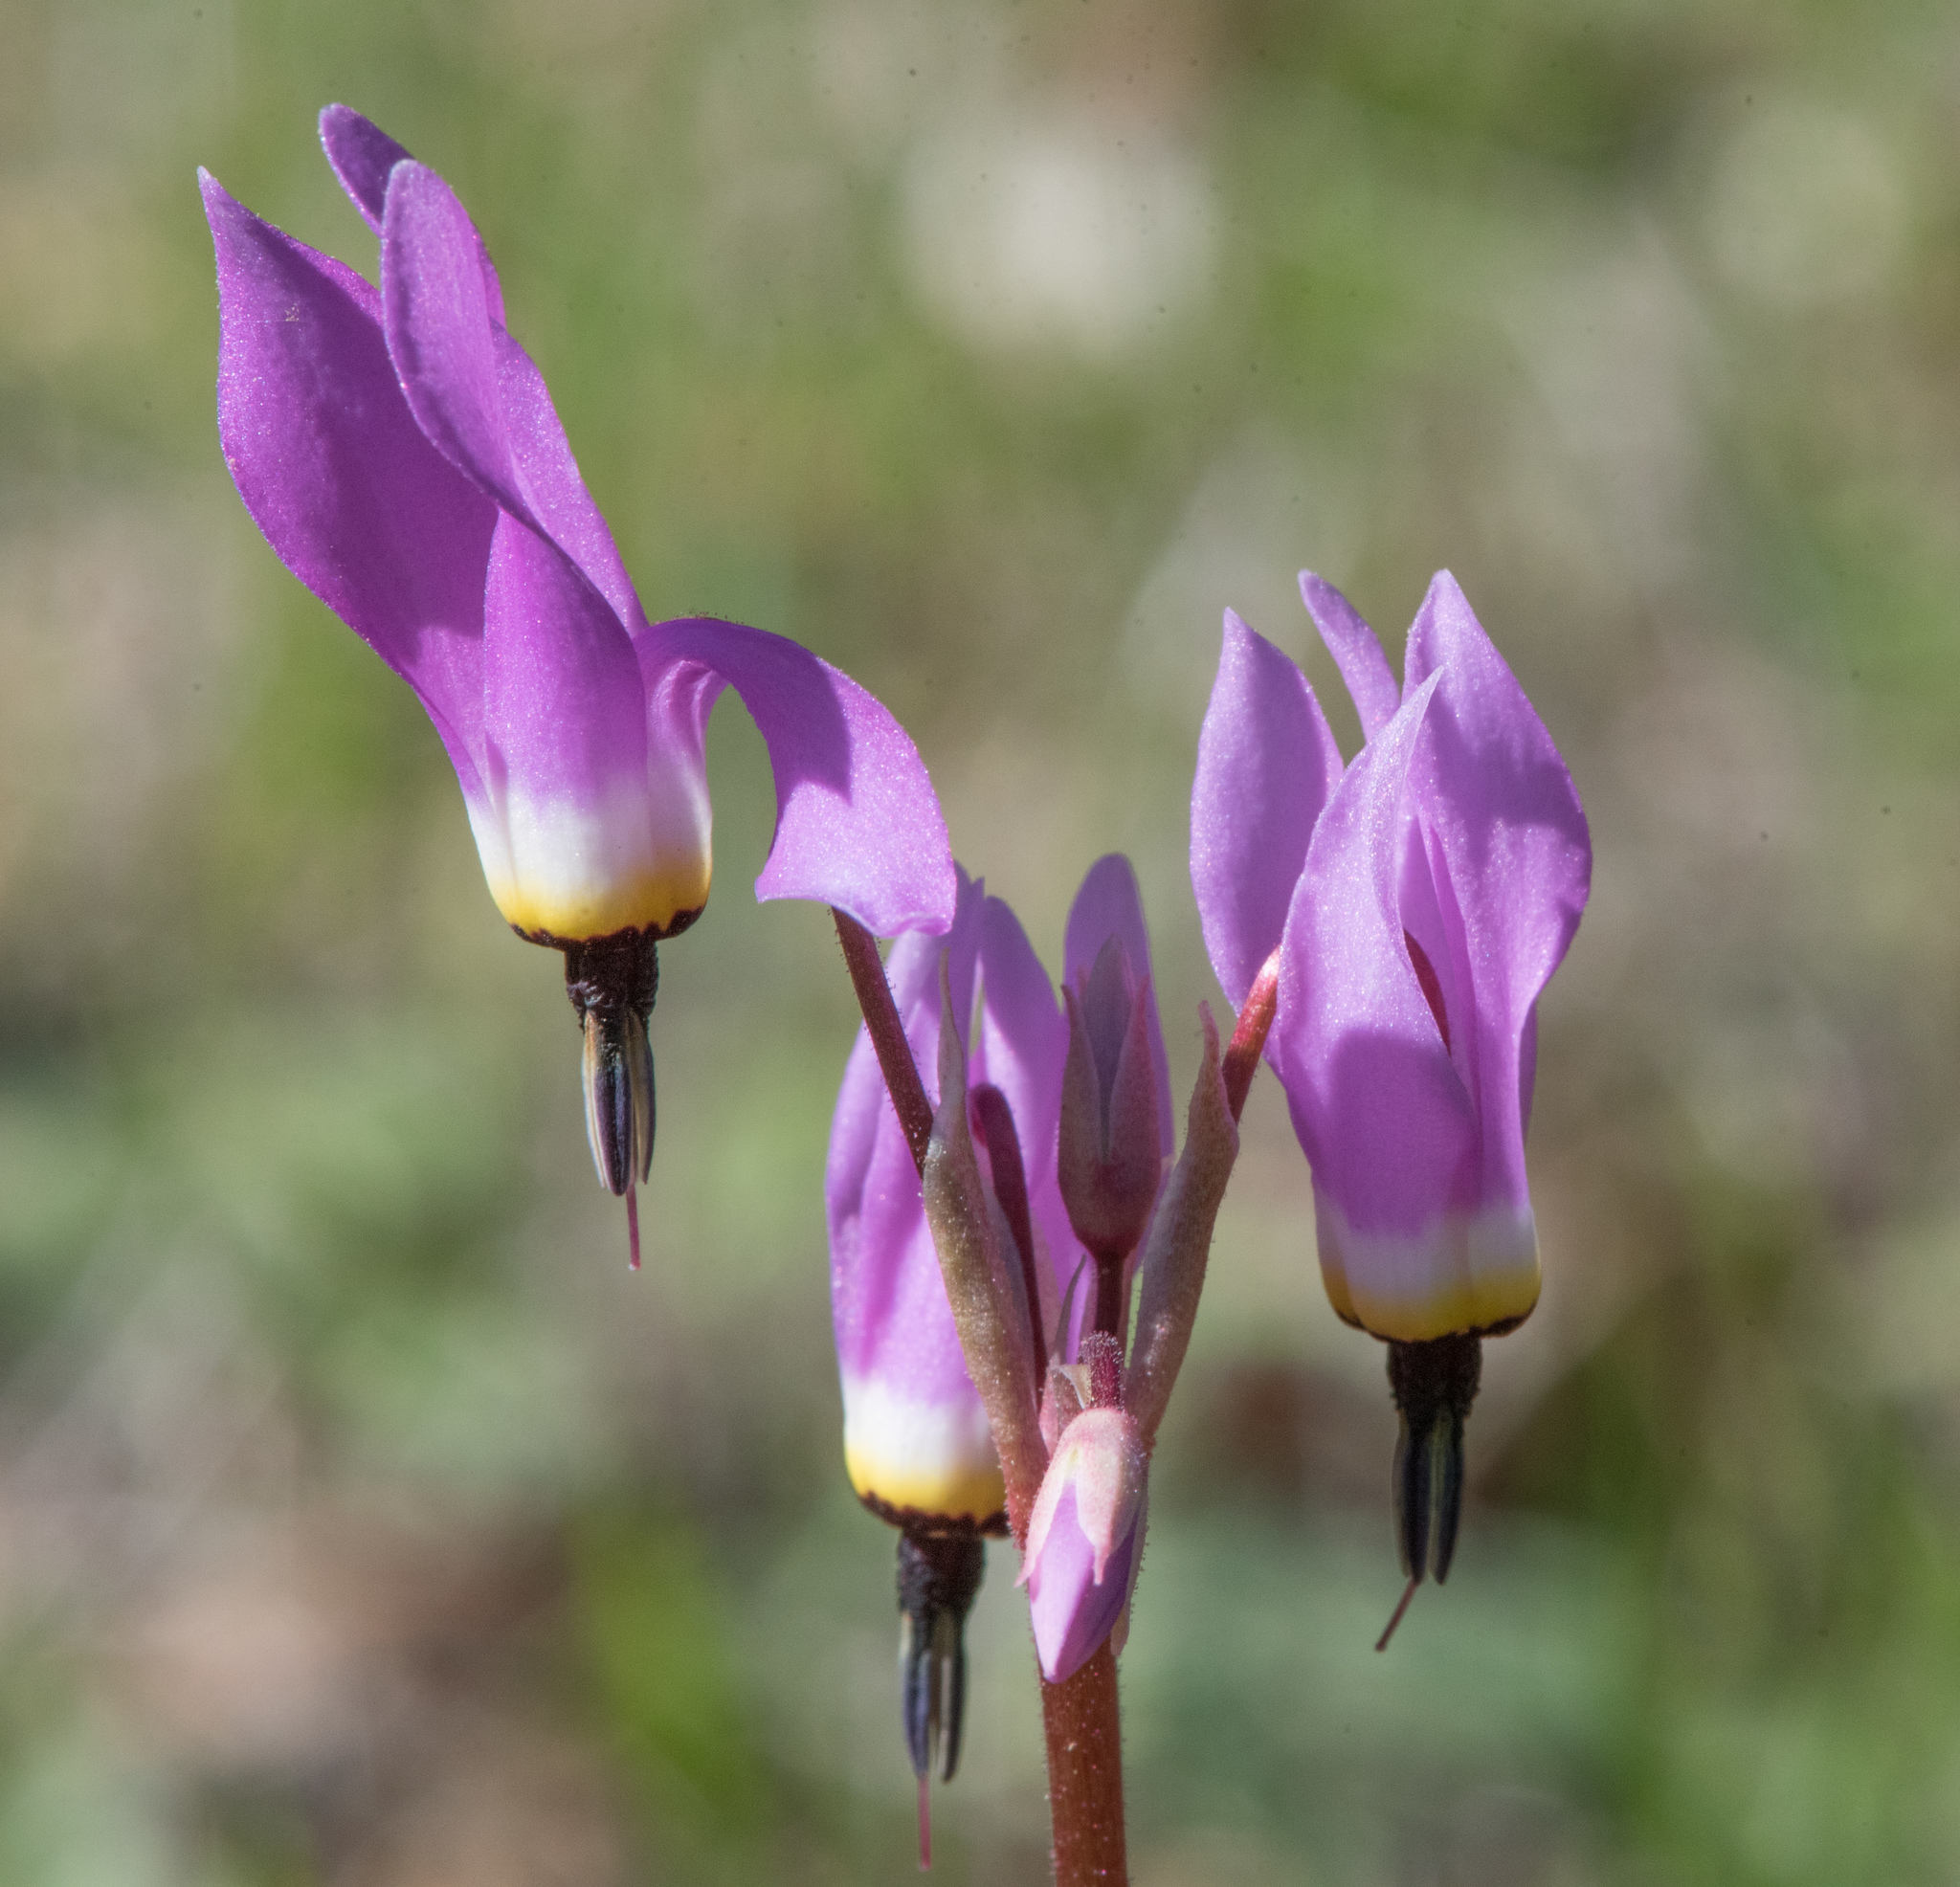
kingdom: Plantae
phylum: Tracheophyta
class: Magnoliopsida
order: Ericales
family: Primulaceae
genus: Dodecatheon
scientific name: Dodecatheon hendersonii
